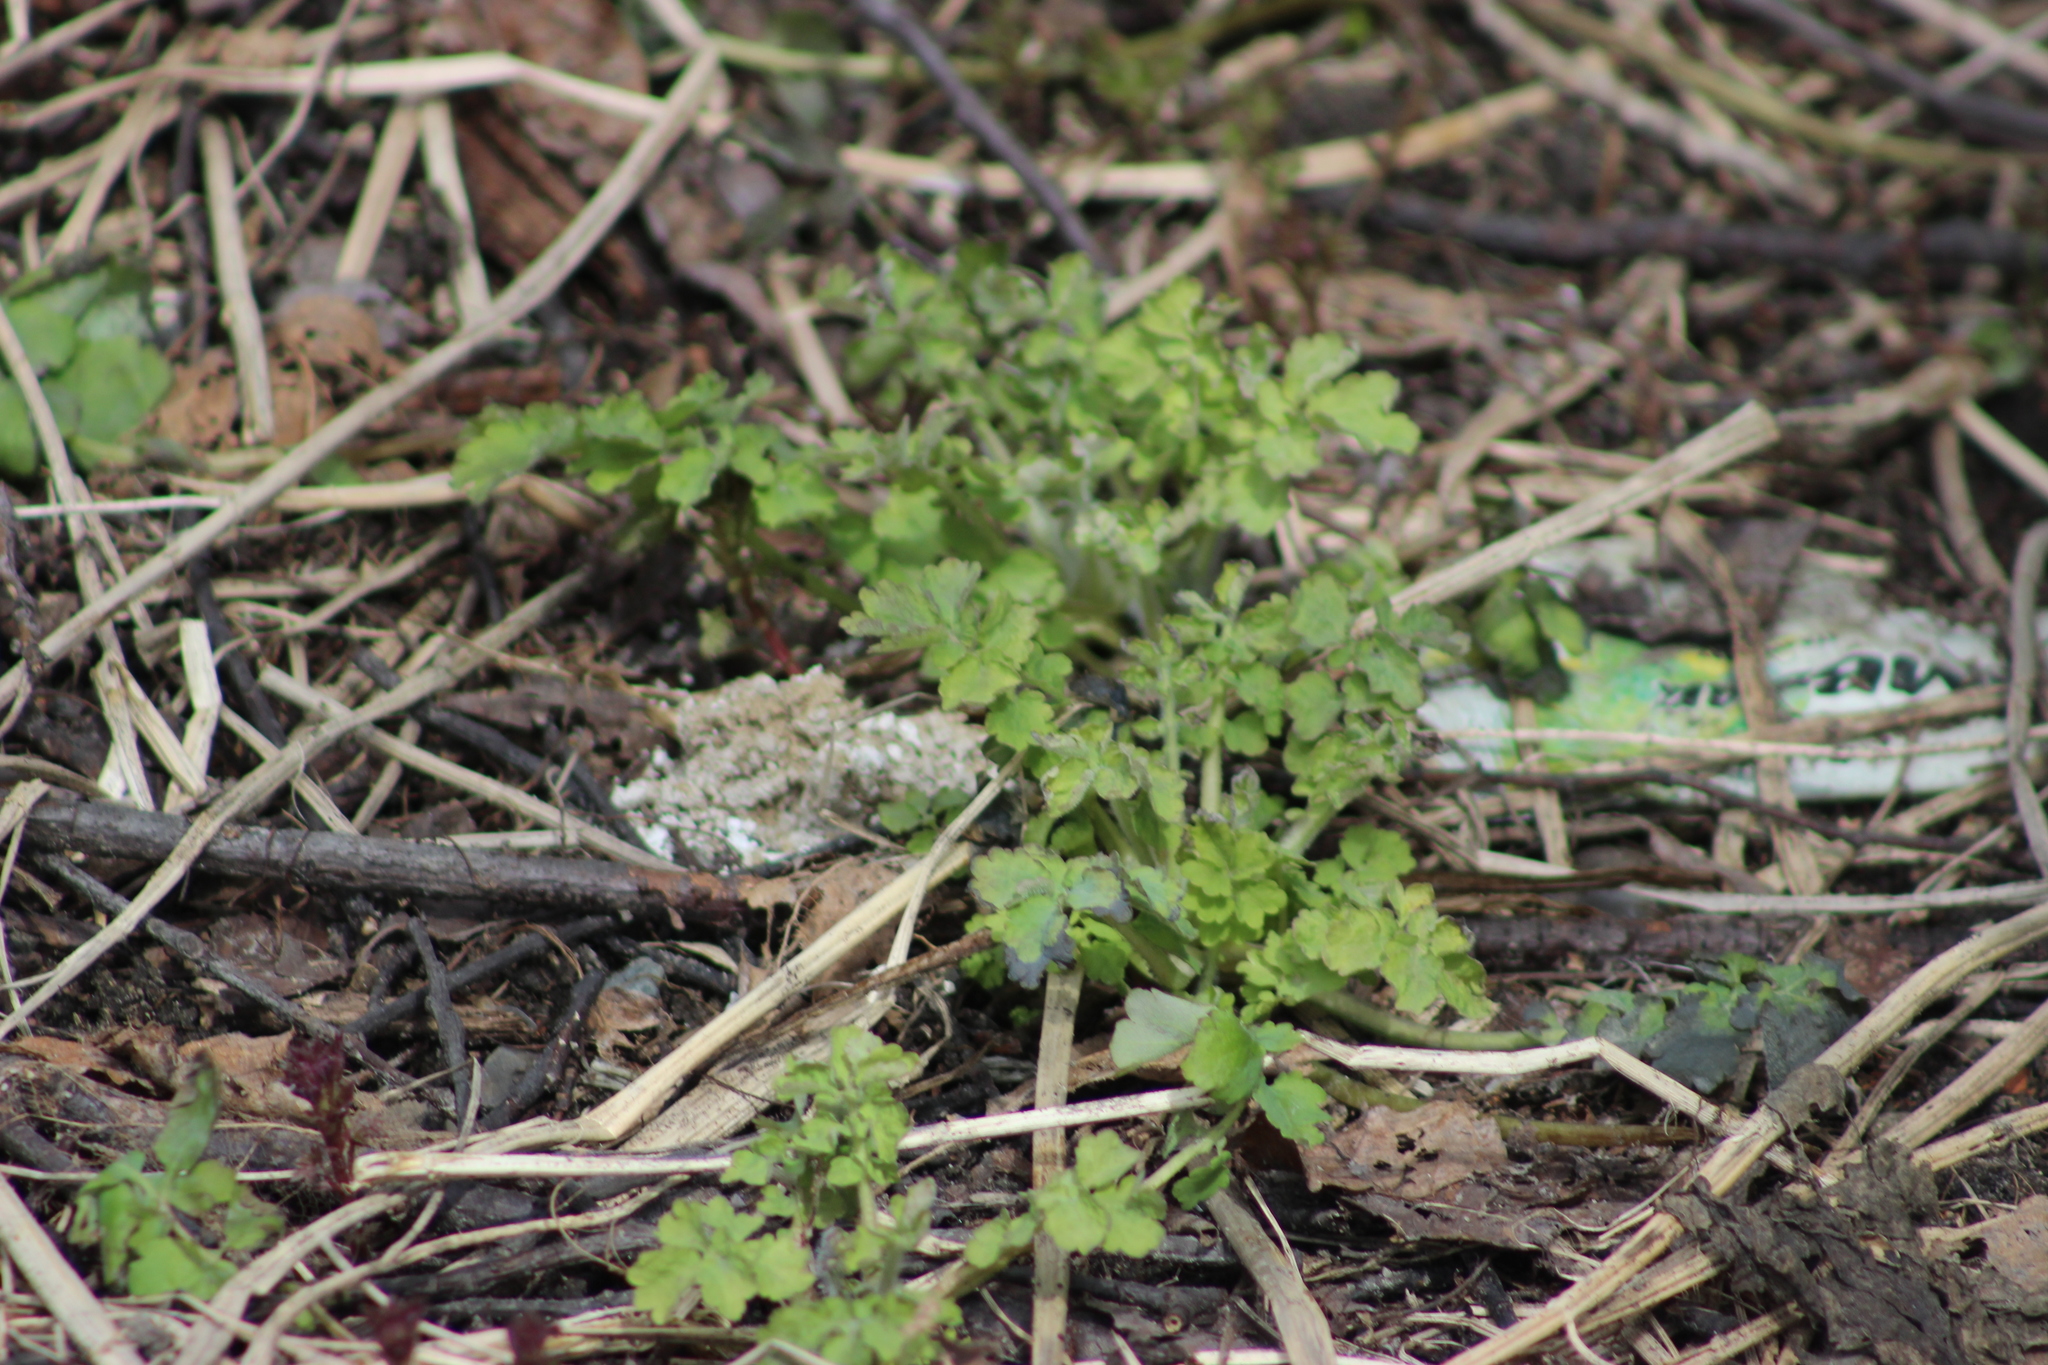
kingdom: Plantae
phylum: Tracheophyta
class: Magnoliopsida
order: Ranunculales
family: Papaveraceae
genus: Chelidonium
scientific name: Chelidonium majus
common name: Greater celandine
